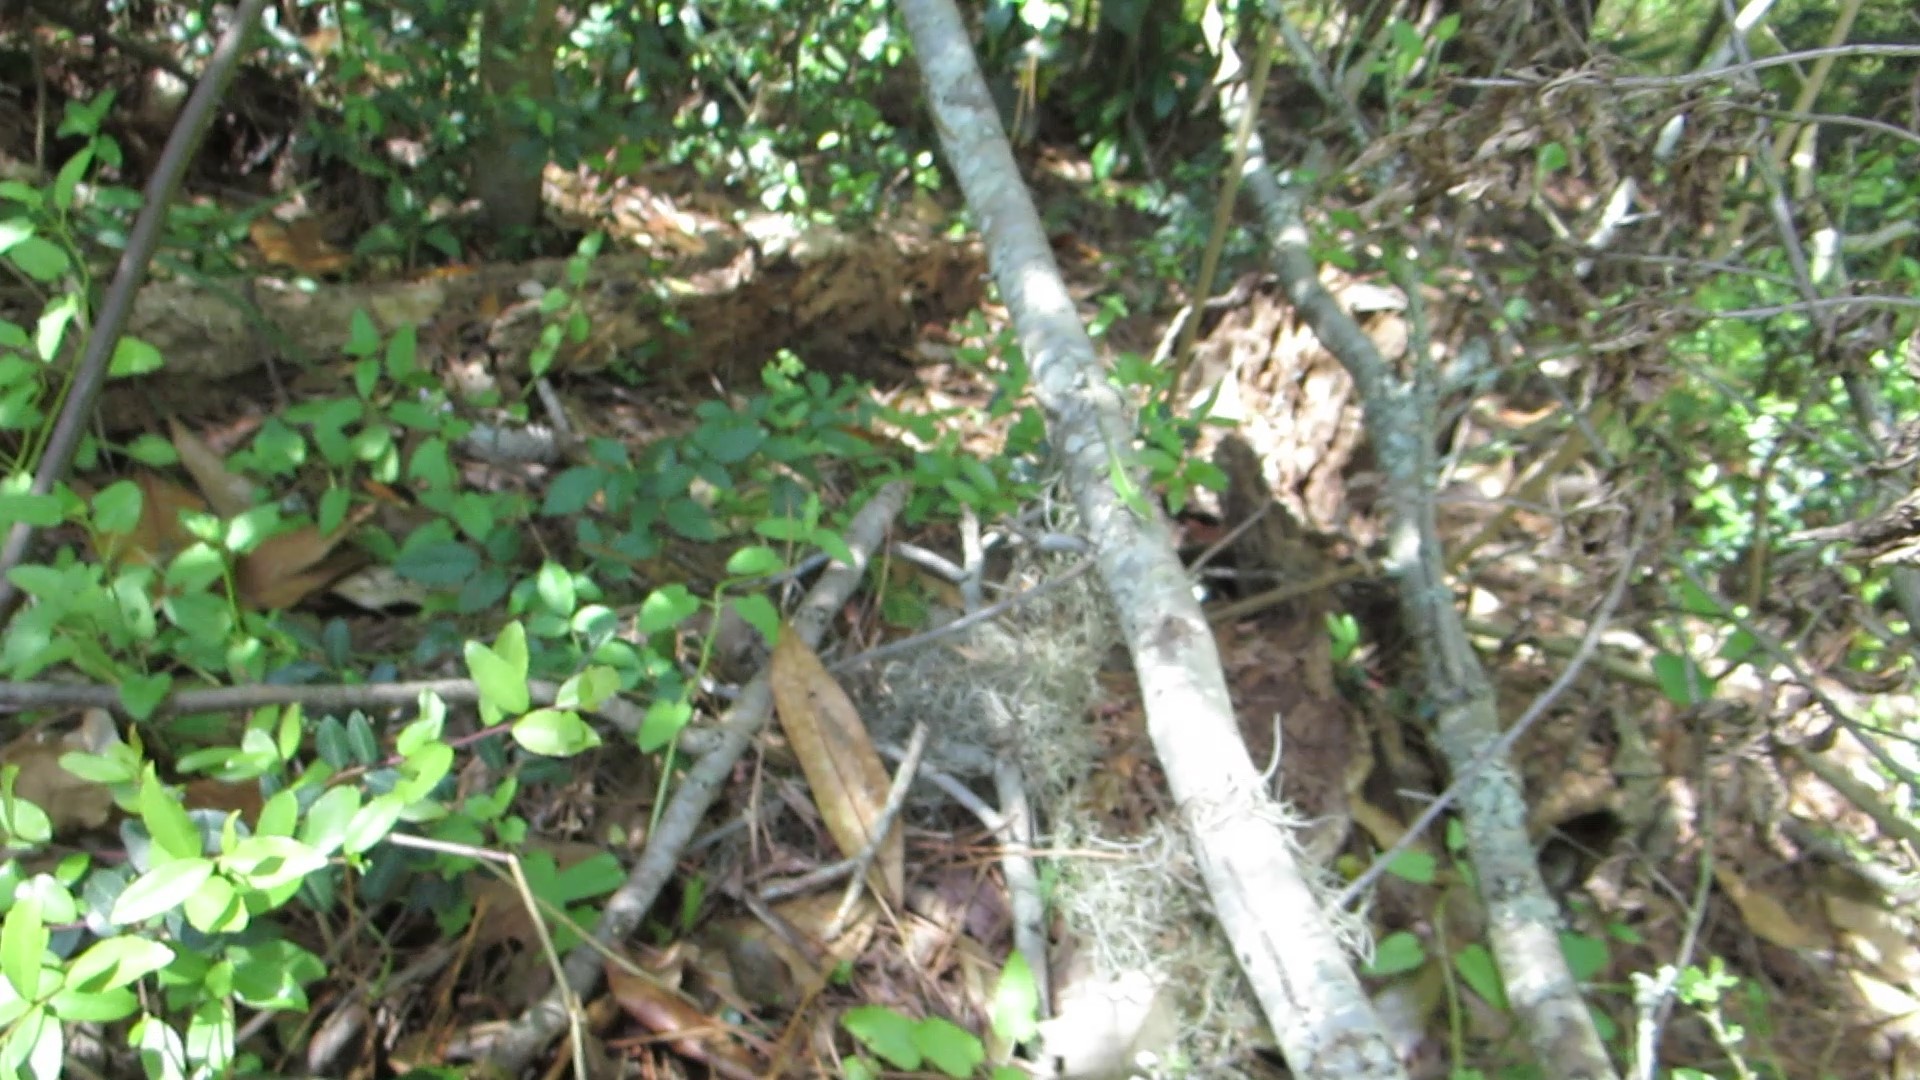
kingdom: Animalia
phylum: Chordata
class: Squamata
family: Dactyloidae
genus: Anolis
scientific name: Anolis carolinensis
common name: Green anole
